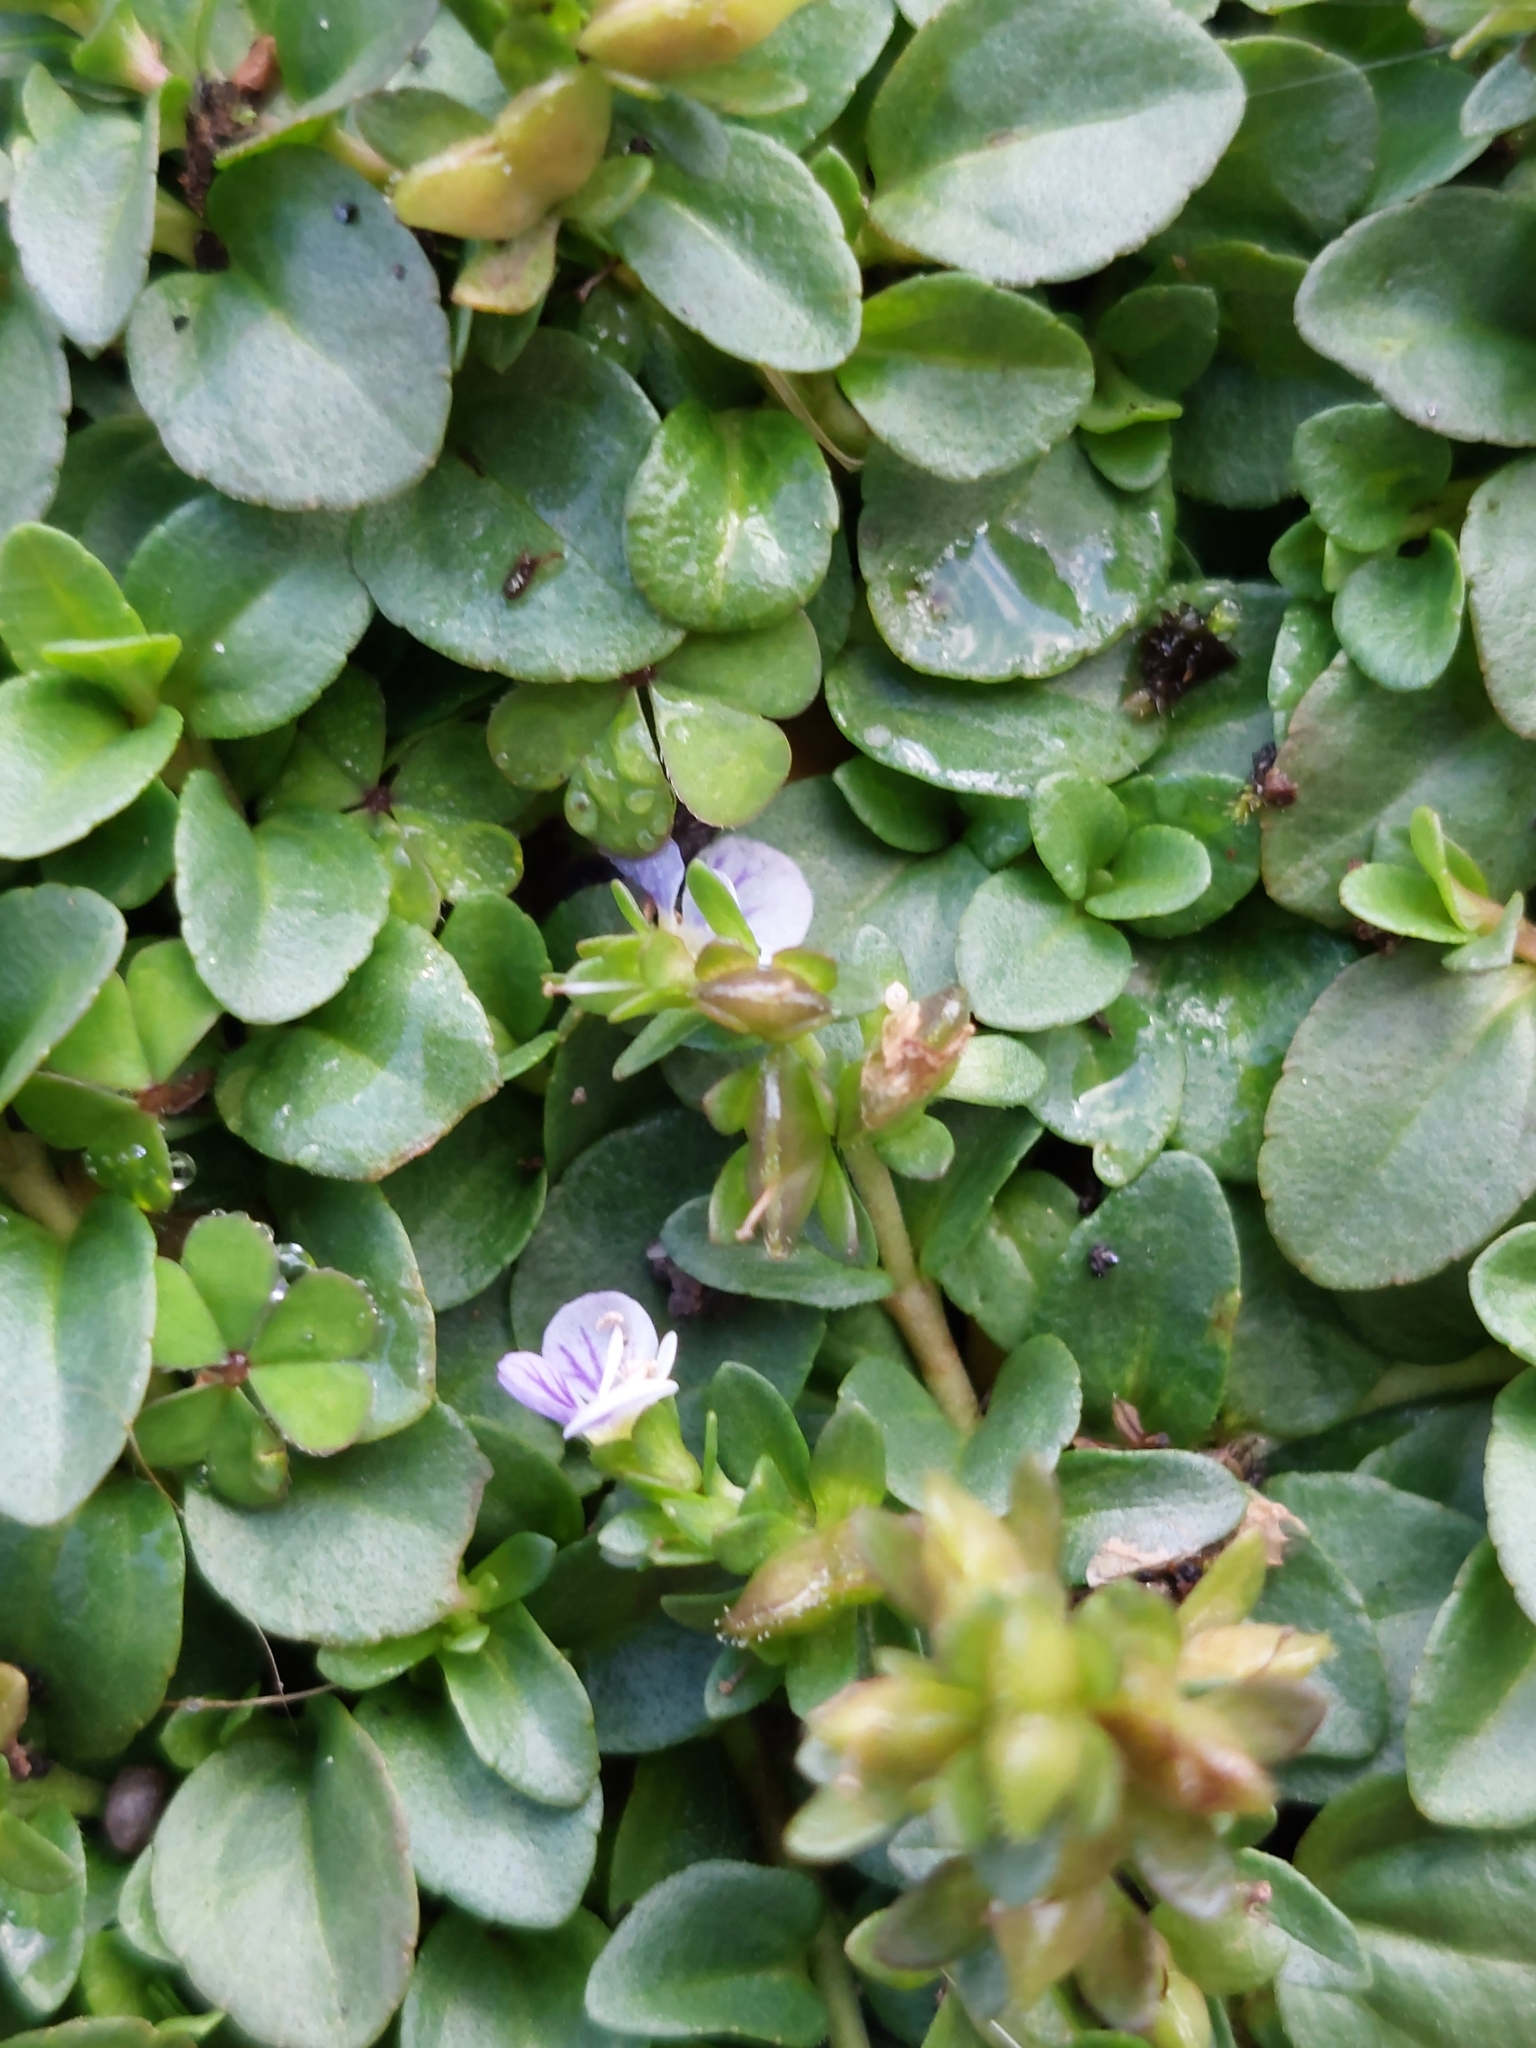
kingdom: Plantae
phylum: Tracheophyta
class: Magnoliopsida
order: Lamiales
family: Plantaginaceae
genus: Veronica
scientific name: Veronica serpyllifolia
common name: Thyme-leaved speedwell
